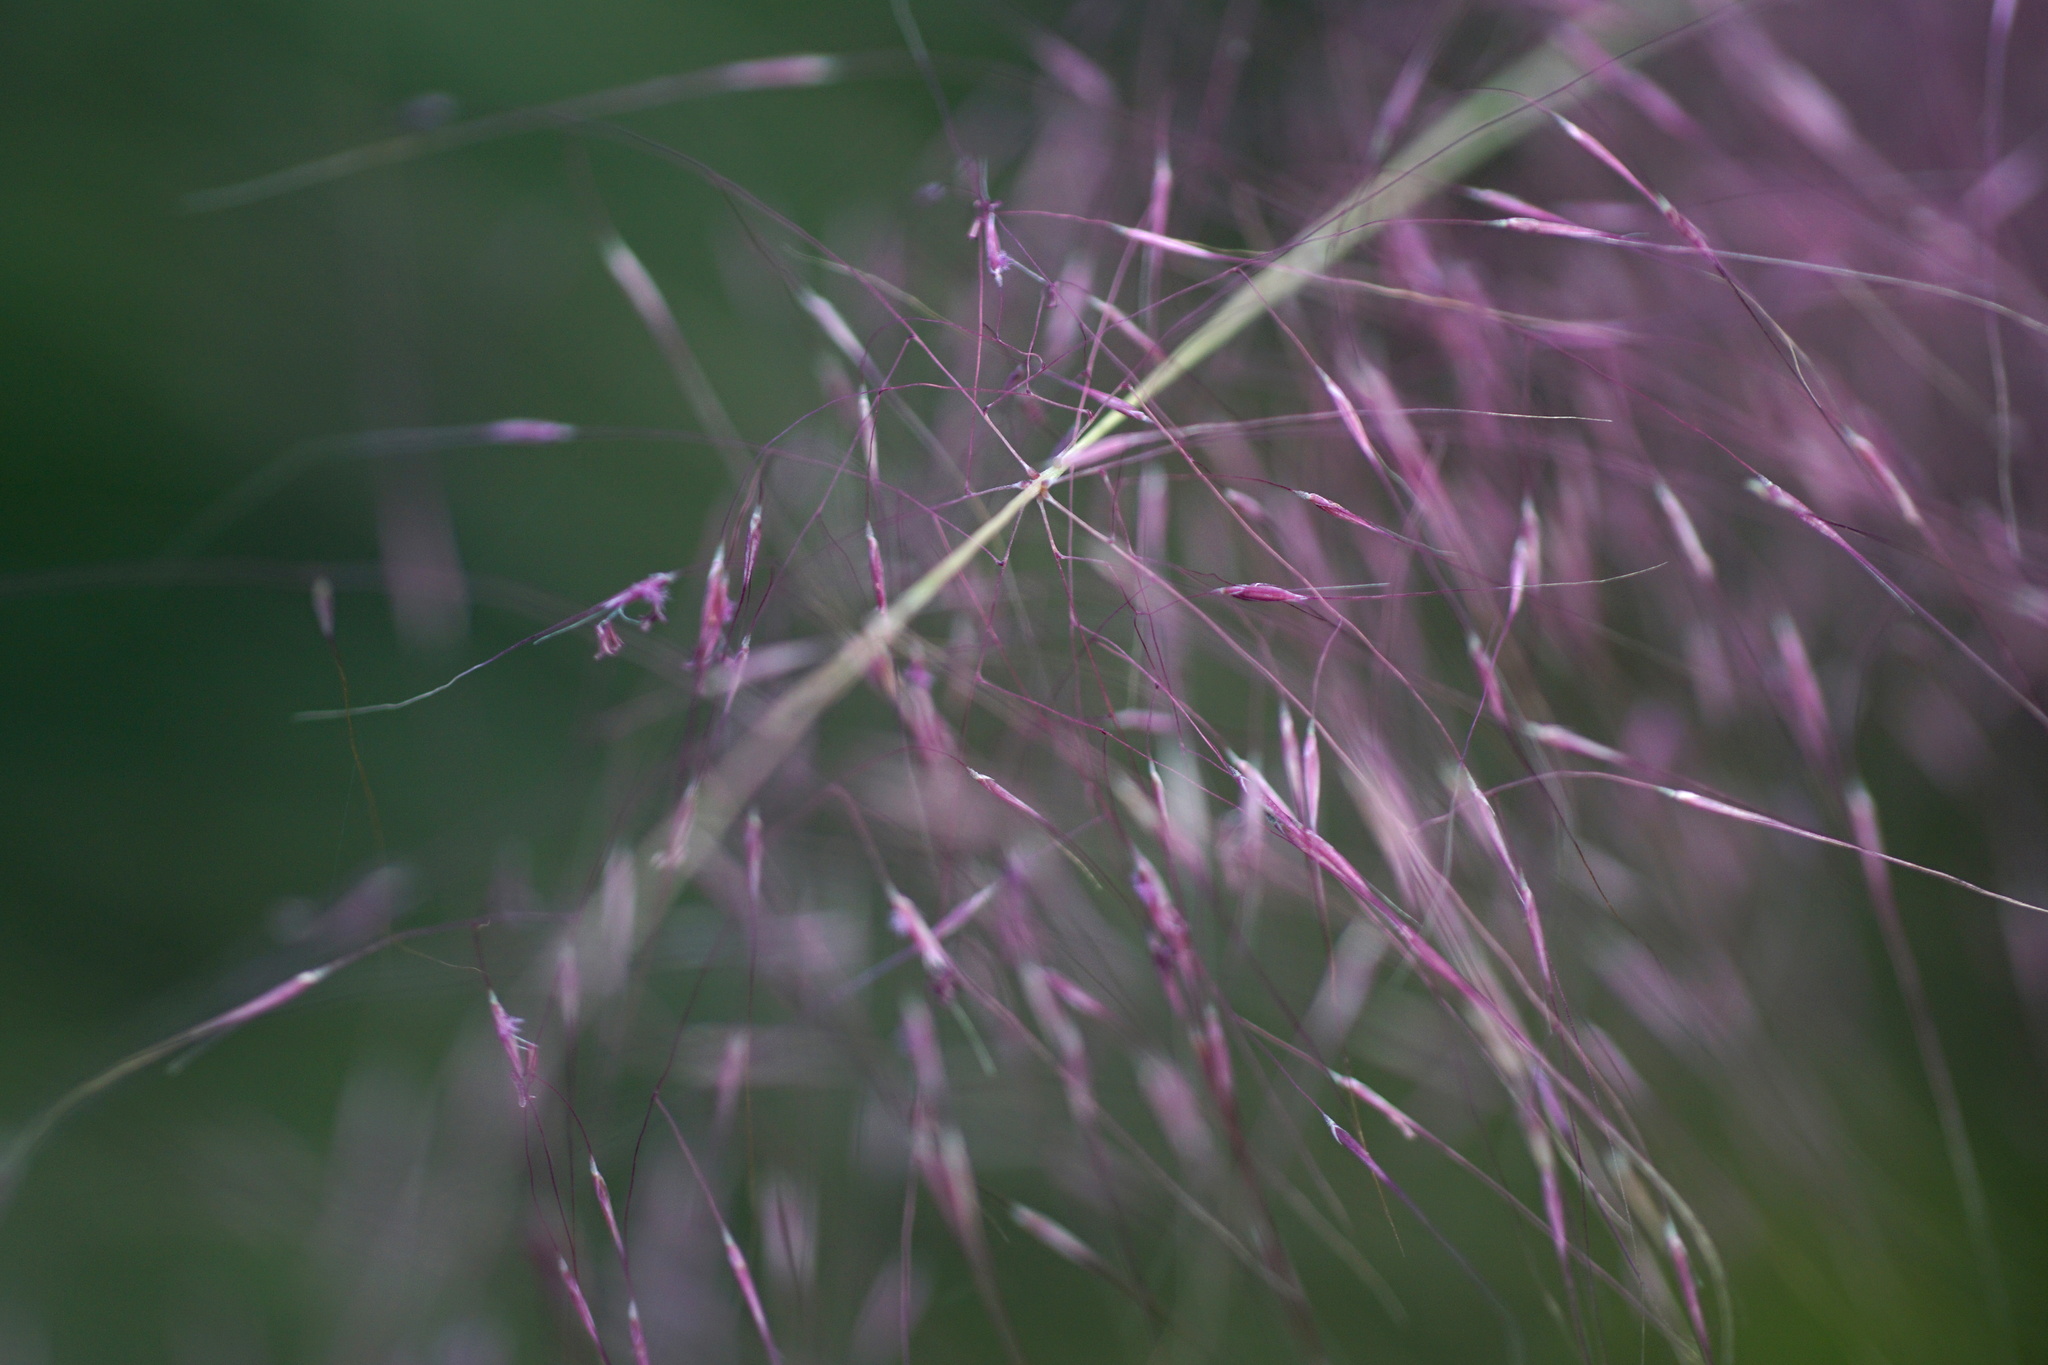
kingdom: Plantae
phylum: Tracheophyta
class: Liliopsida
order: Poales
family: Poaceae
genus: Muhlenbergia
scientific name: Muhlenbergia capillaris
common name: Purple grass
